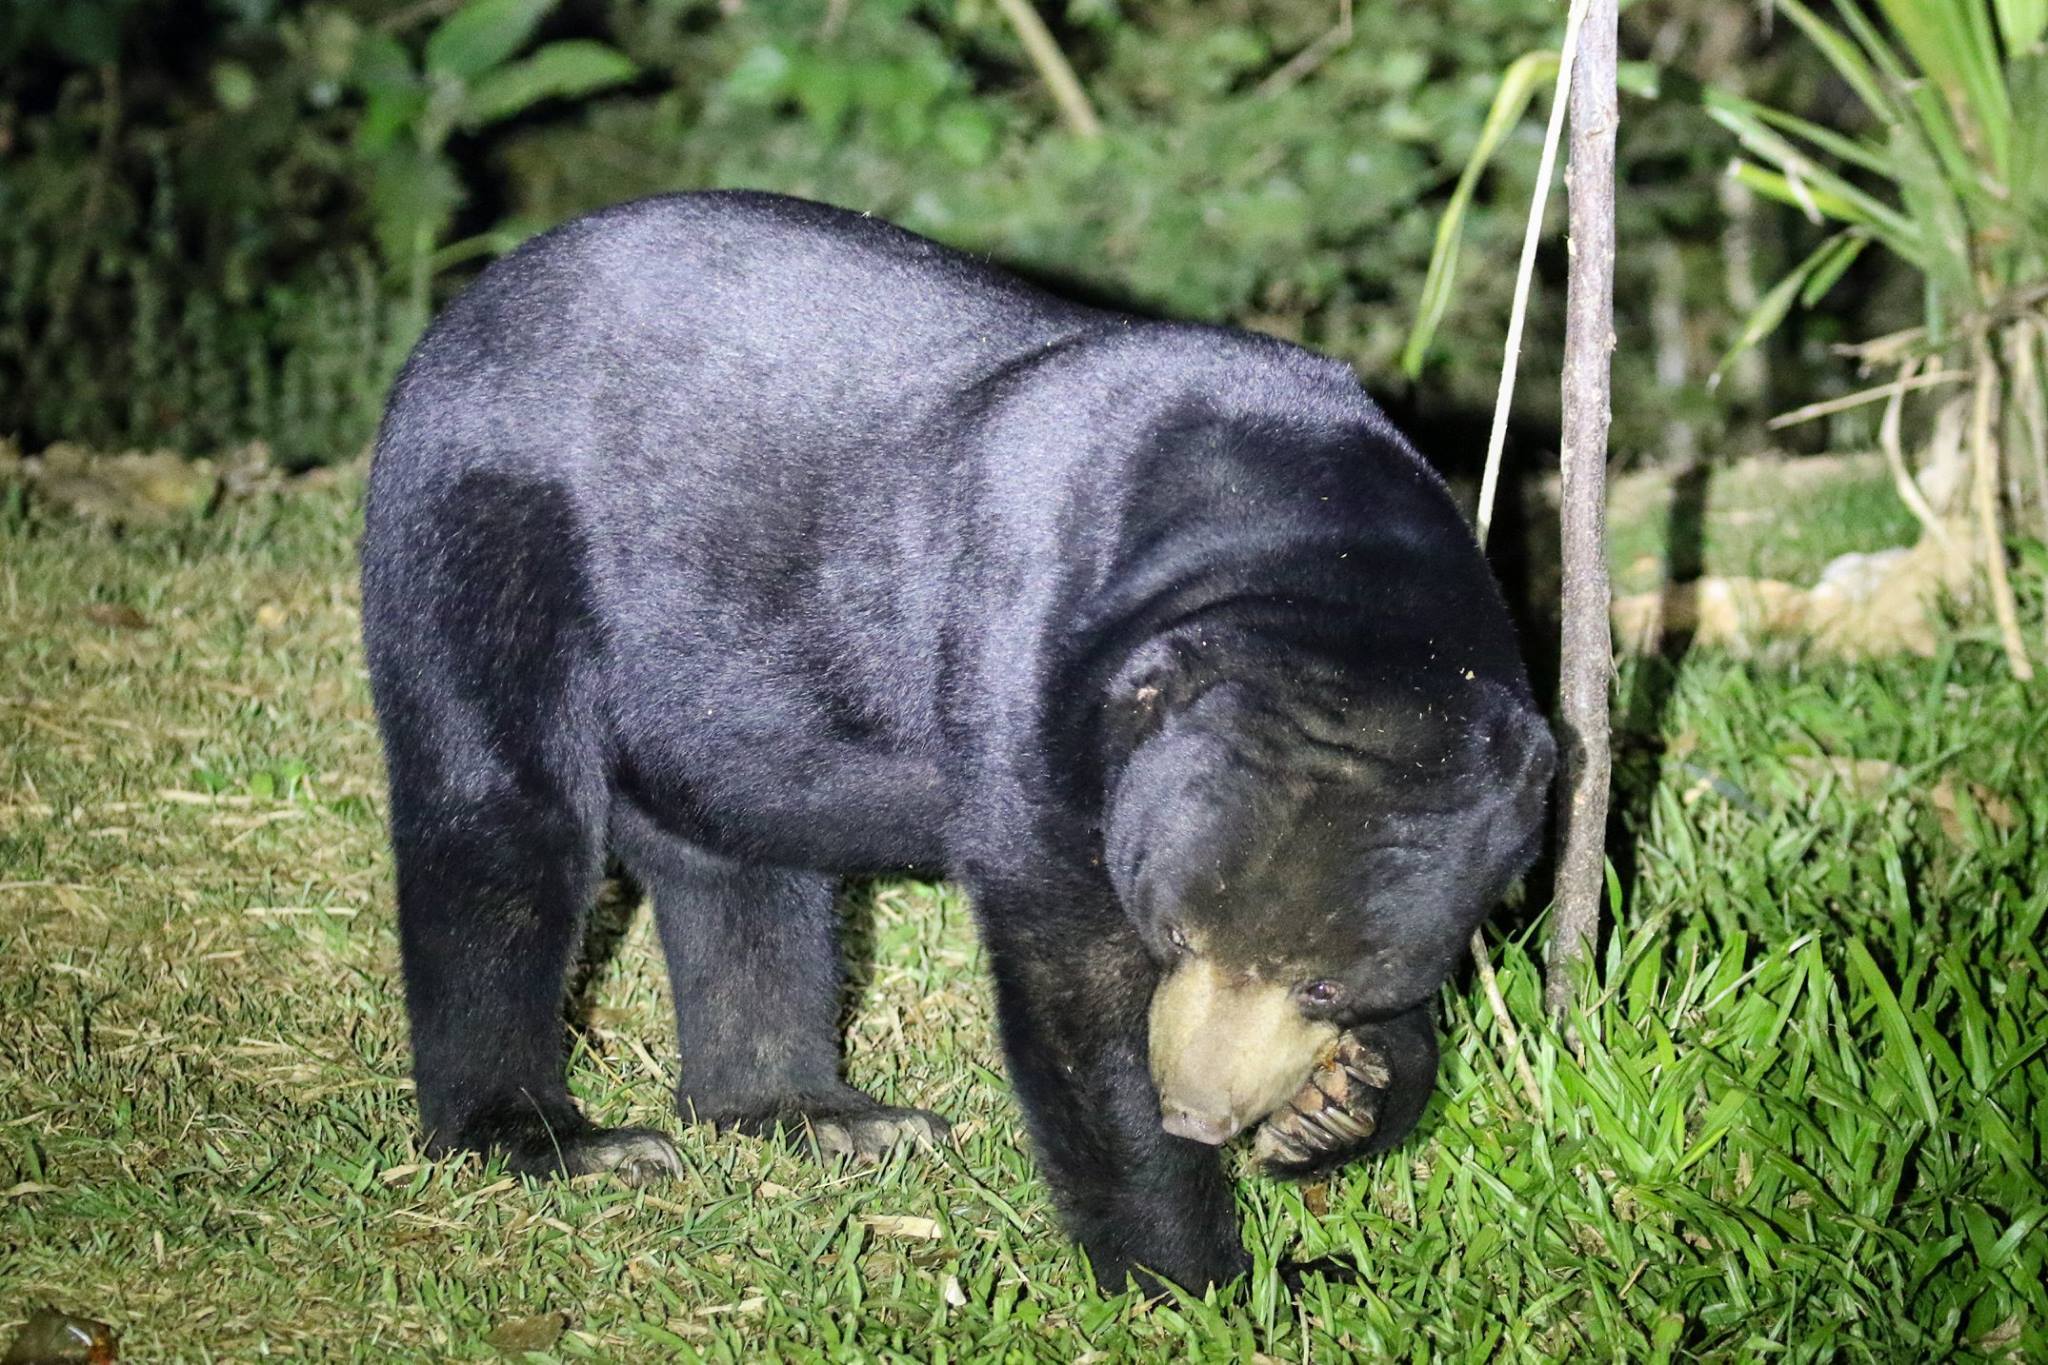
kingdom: Animalia
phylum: Chordata
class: Mammalia
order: Carnivora
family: Ursidae
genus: Helarctos
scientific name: Helarctos malayanus
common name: Sun bear
